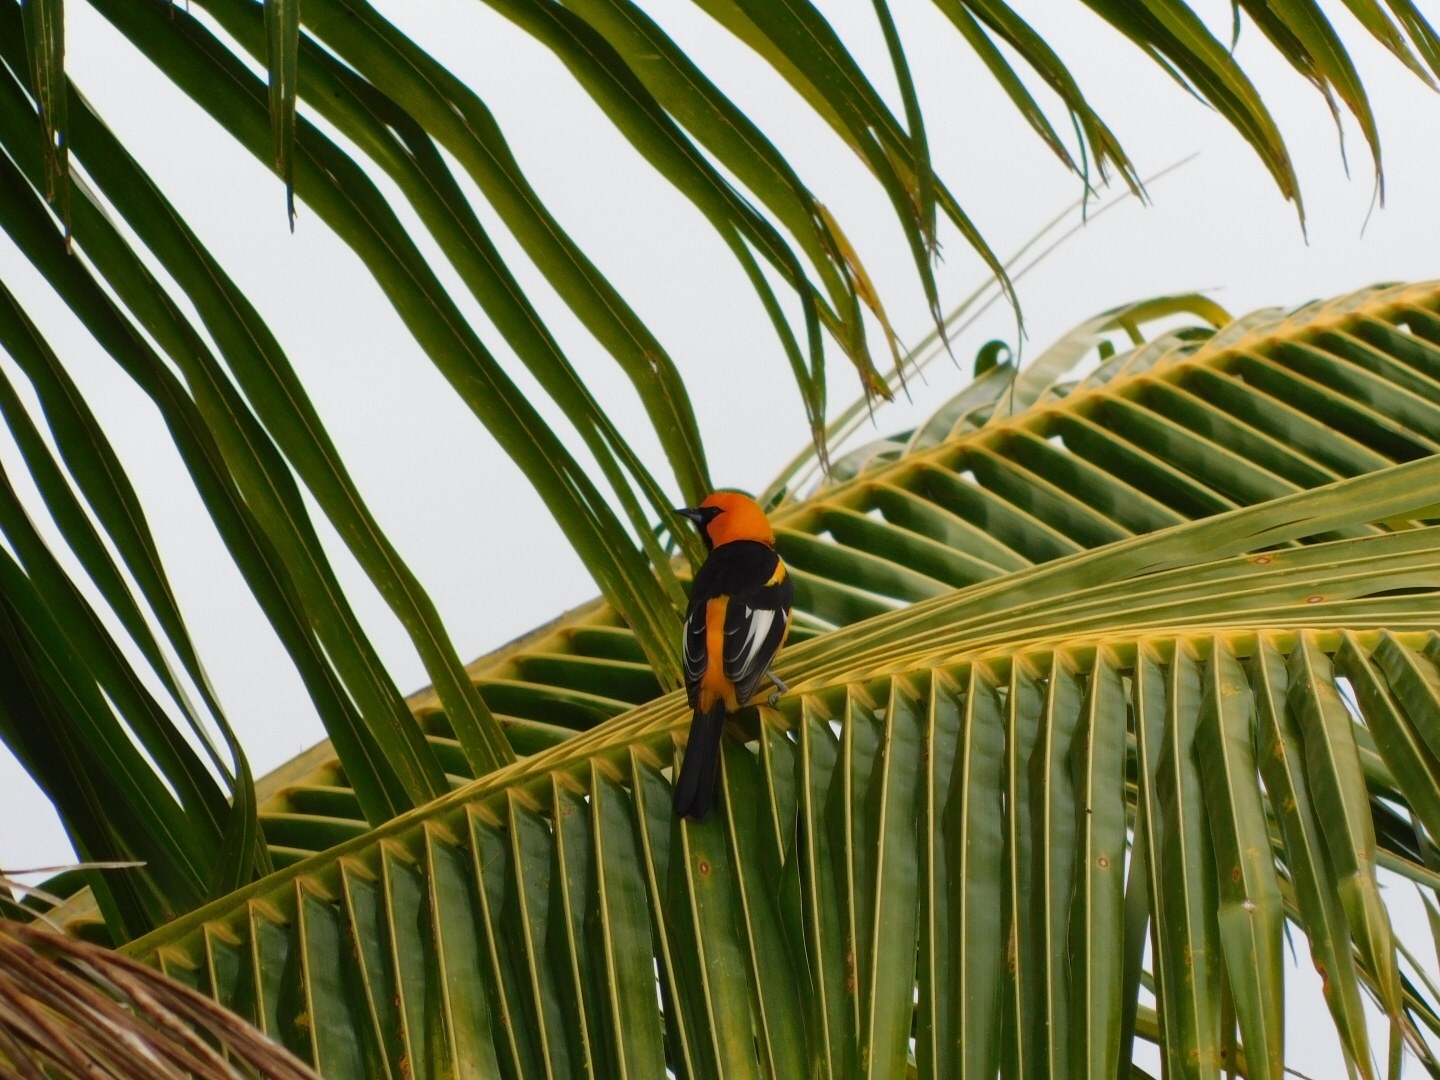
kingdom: Animalia
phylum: Chordata
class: Aves
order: Passeriformes
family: Icteridae
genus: Icterus
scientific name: Icterus pectoralis
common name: Spot-breasted oriole
